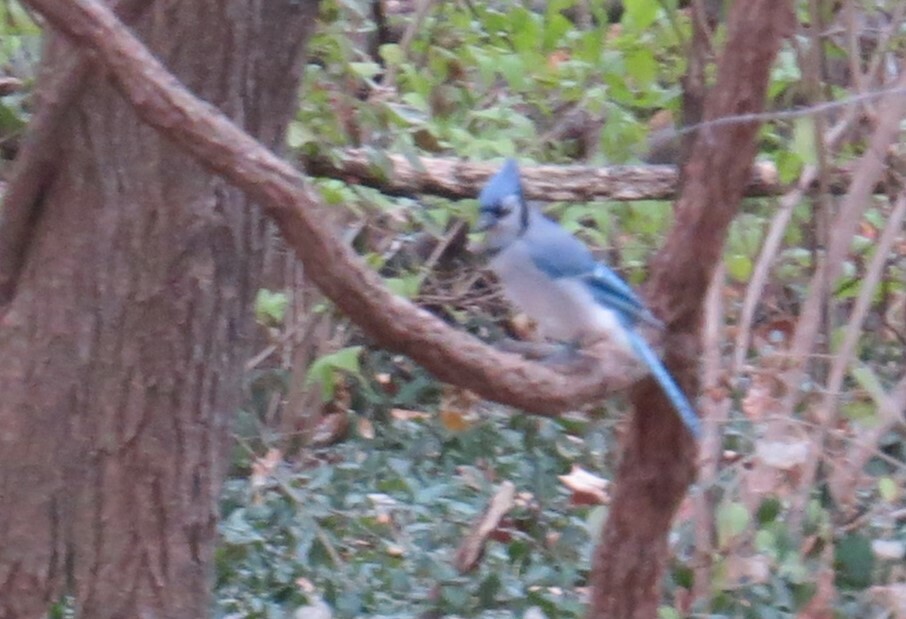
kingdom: Animalia
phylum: Chordata
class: Aves
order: Passeriformes
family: Corvidae
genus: Cyanocitta
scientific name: Cyanocitta cristata
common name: Blue jay
